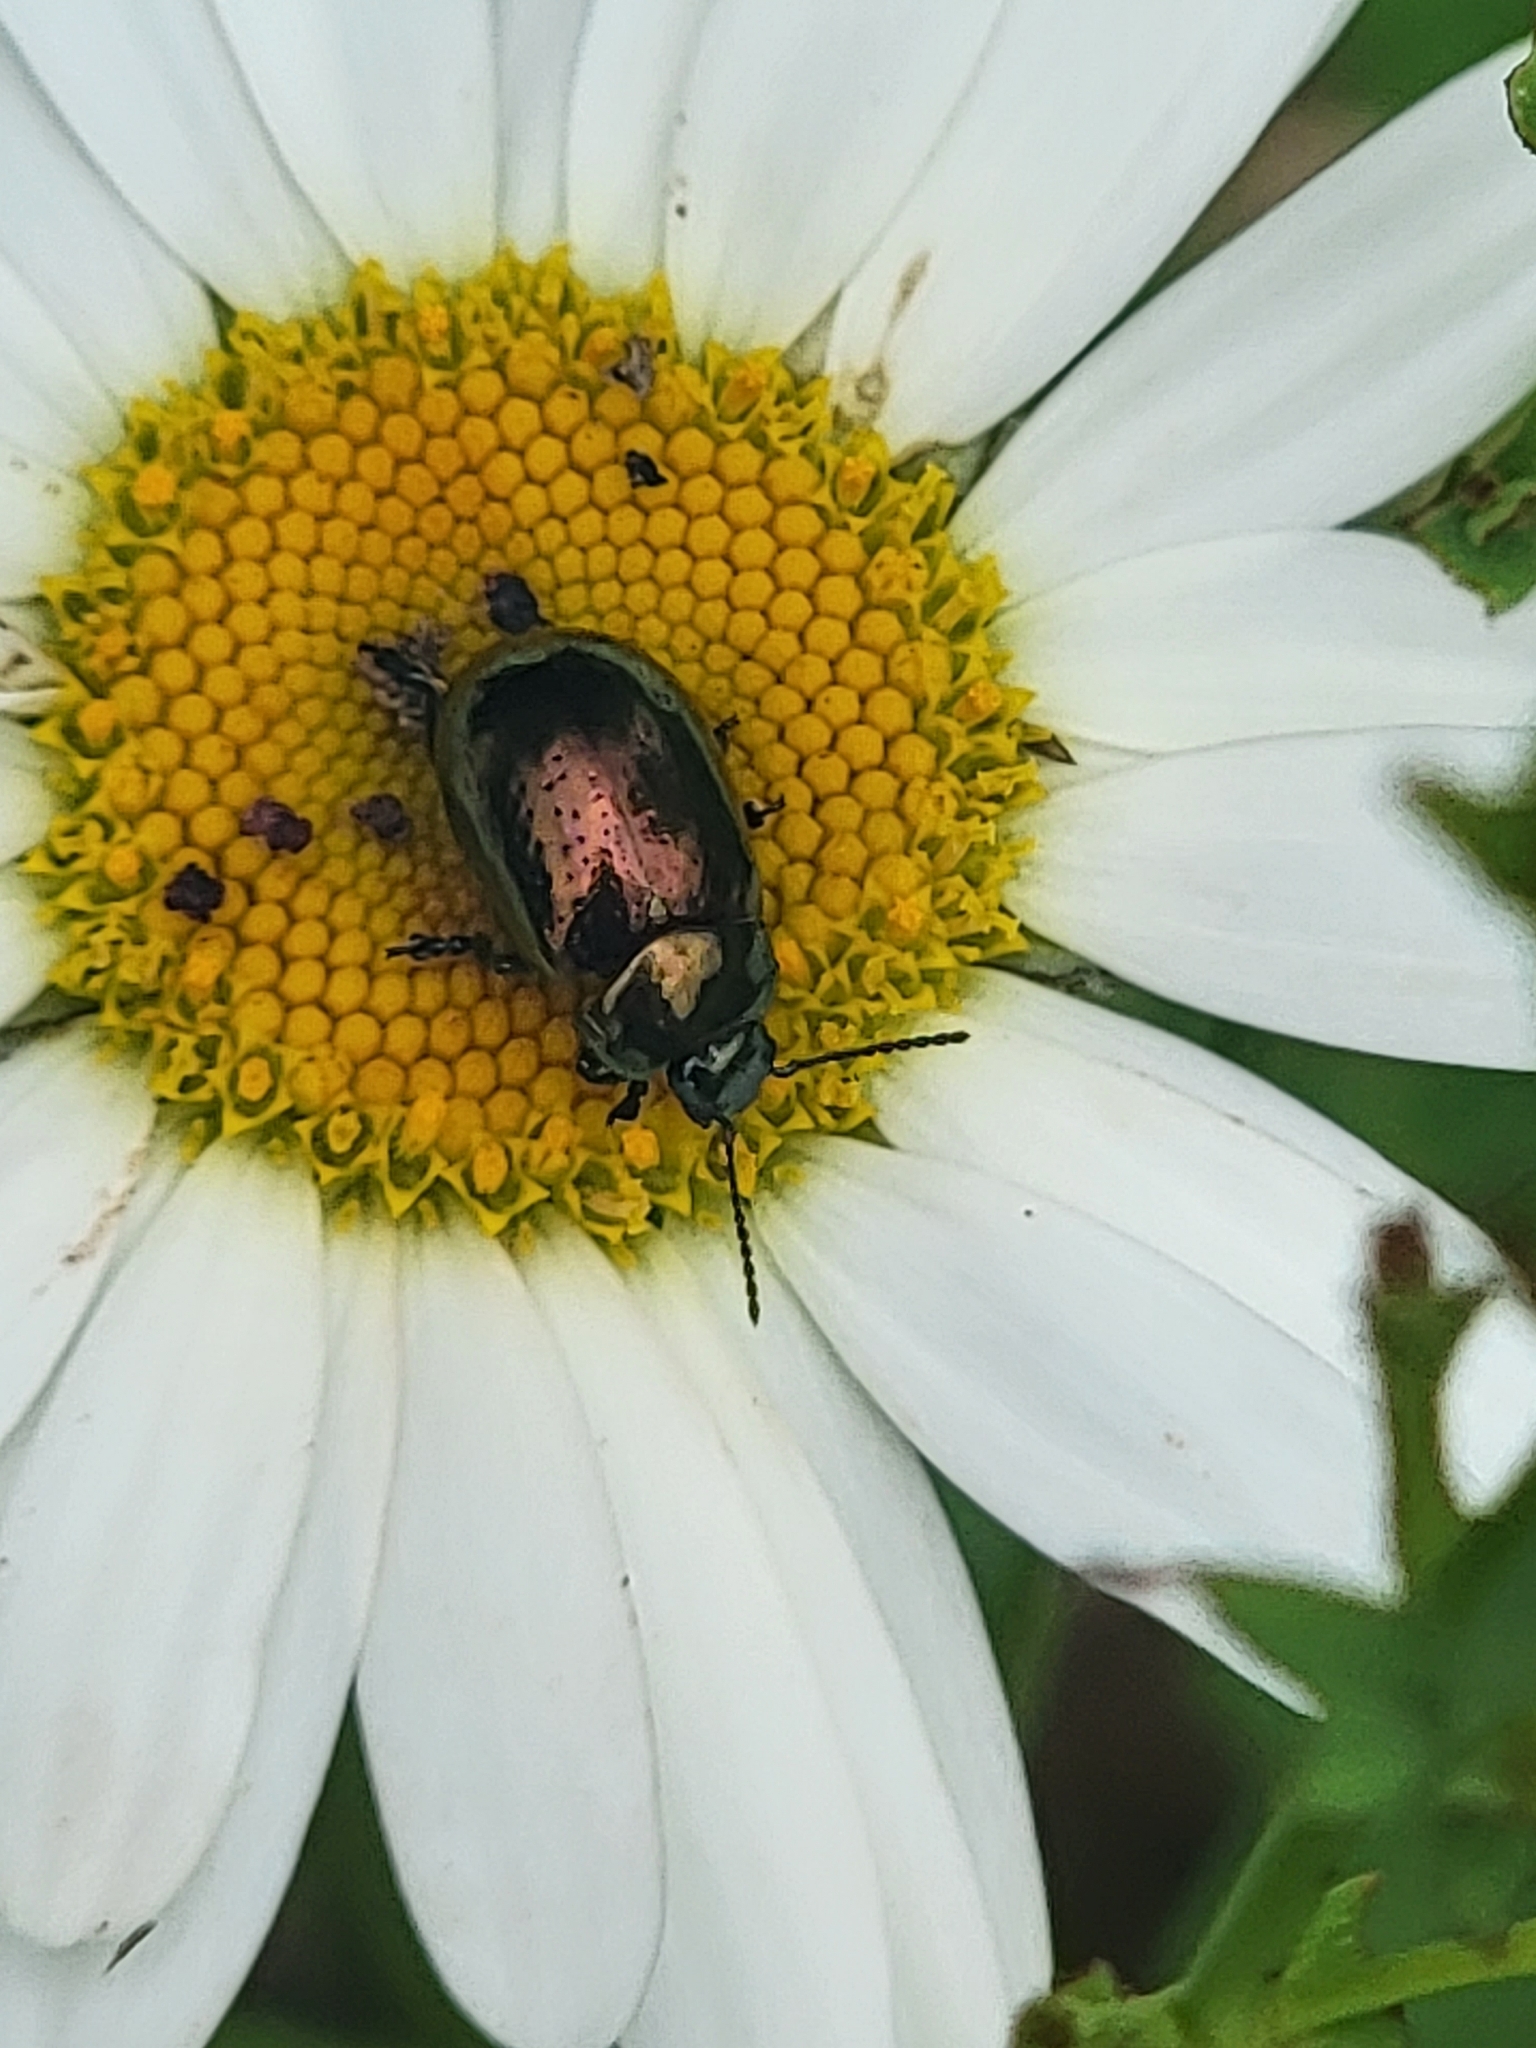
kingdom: Animalia
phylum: Arthropoda
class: Insecta
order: Coleoptera
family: Chrysomelidae
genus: Chrysolina
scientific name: Chrysolina hyperici
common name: St. johnswort beetle
